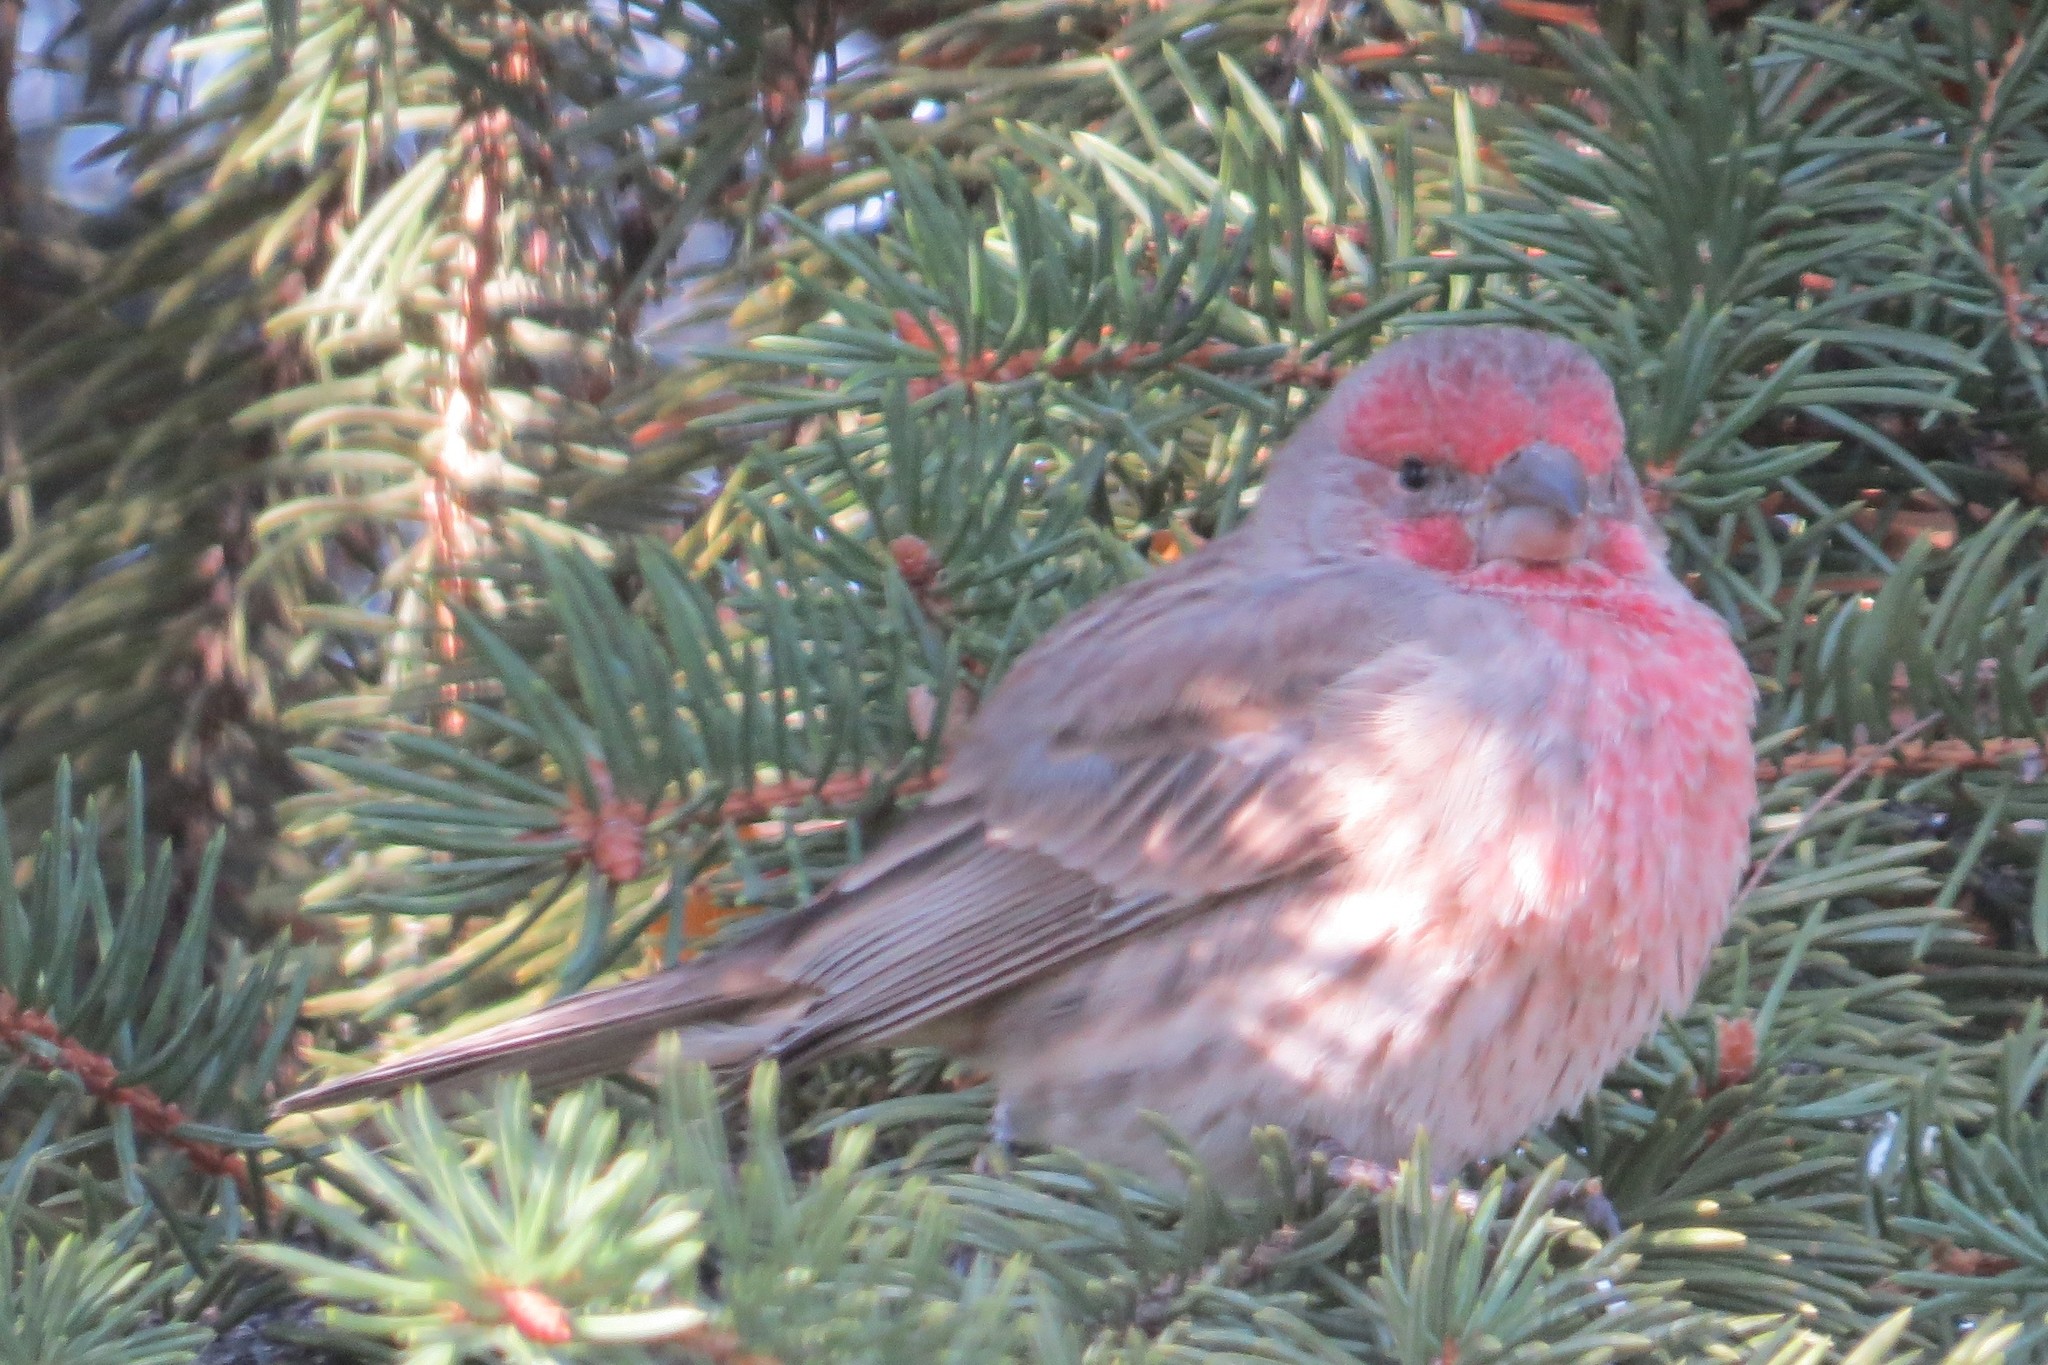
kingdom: Animalia
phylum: Chordata
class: Aves
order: Passeriformes
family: Fringillidae
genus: Haemorhous
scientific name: Haemorhous mexicanus
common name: House finch
